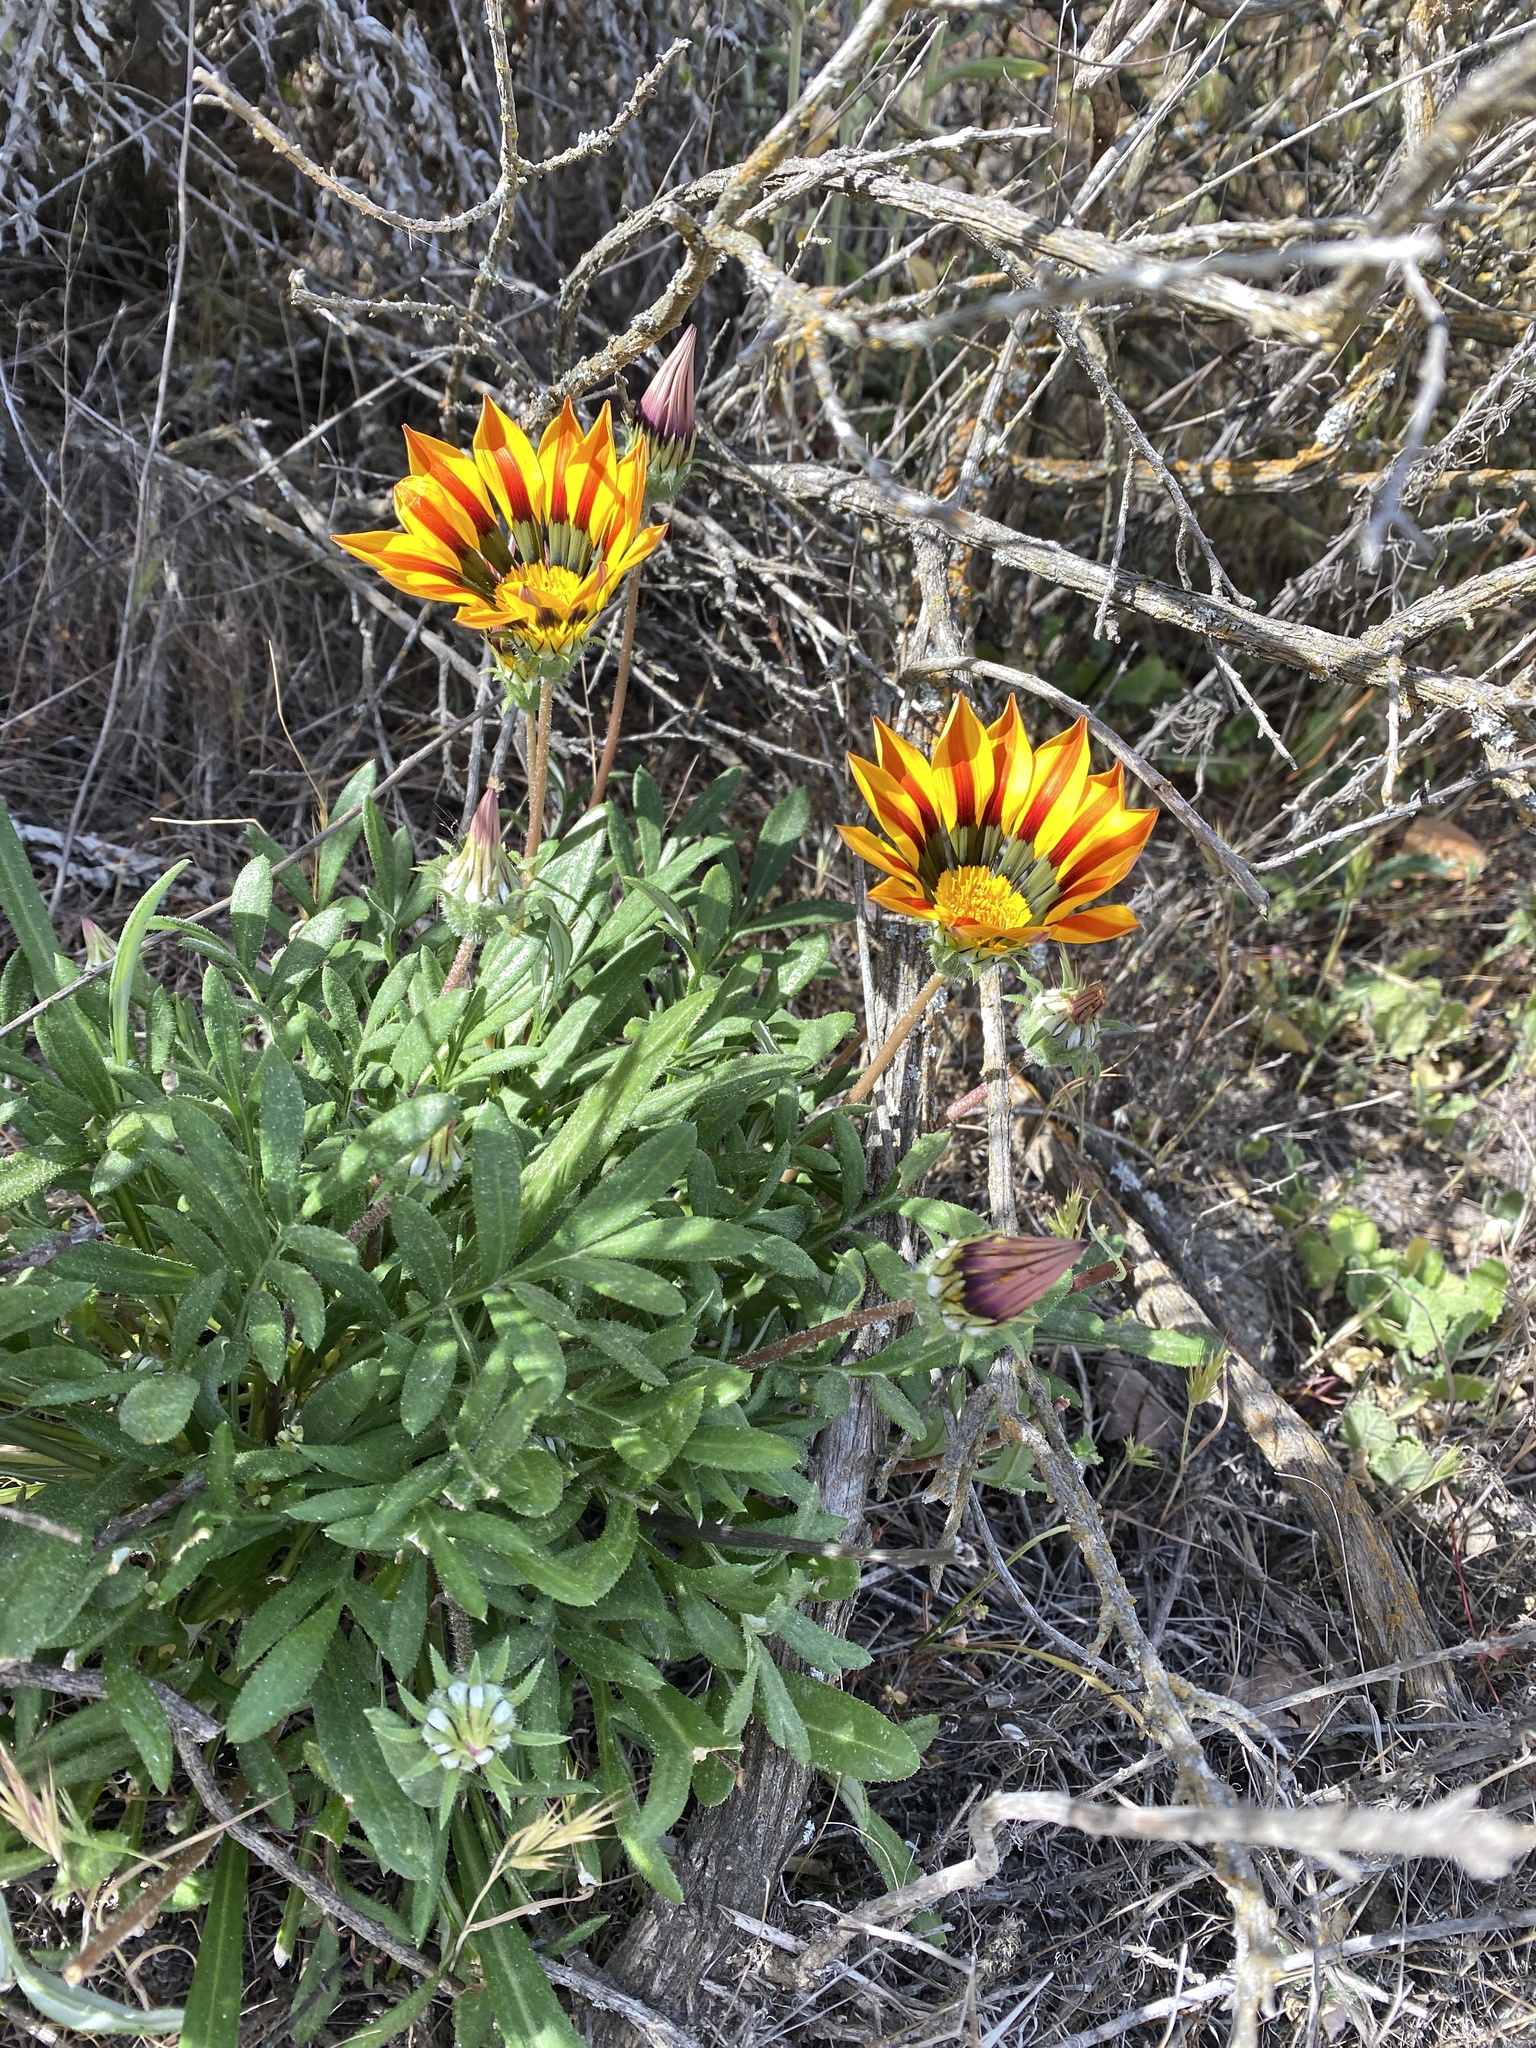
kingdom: Plantae
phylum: Tracheophyta
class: Magnoliopsida
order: Asterales
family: Asteraceae
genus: Gazania
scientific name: Gazania linearis
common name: Treasureflower
